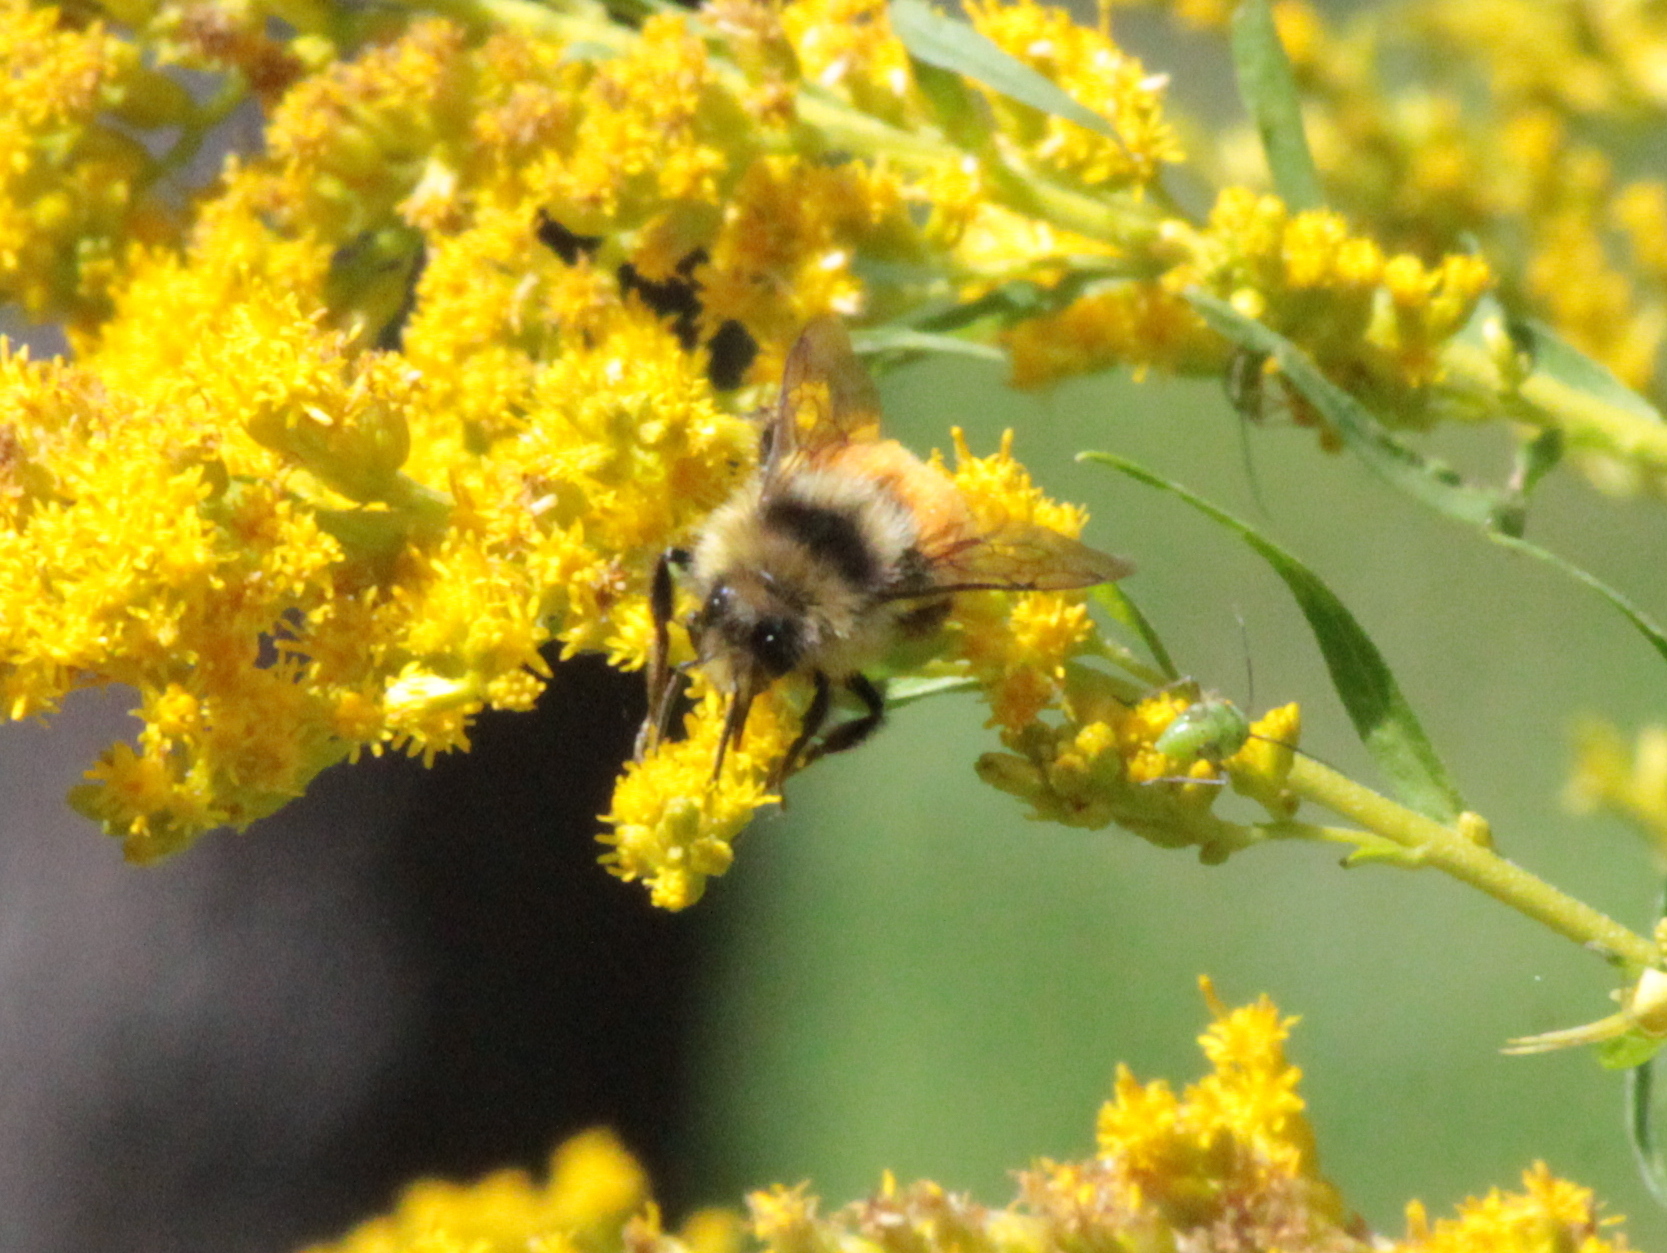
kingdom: Animalia
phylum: Arthropoda
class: Insecta
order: Hymenoptera
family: Apidae
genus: Bombus
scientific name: Bombus ternarius
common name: Tri-colored bumble bee
